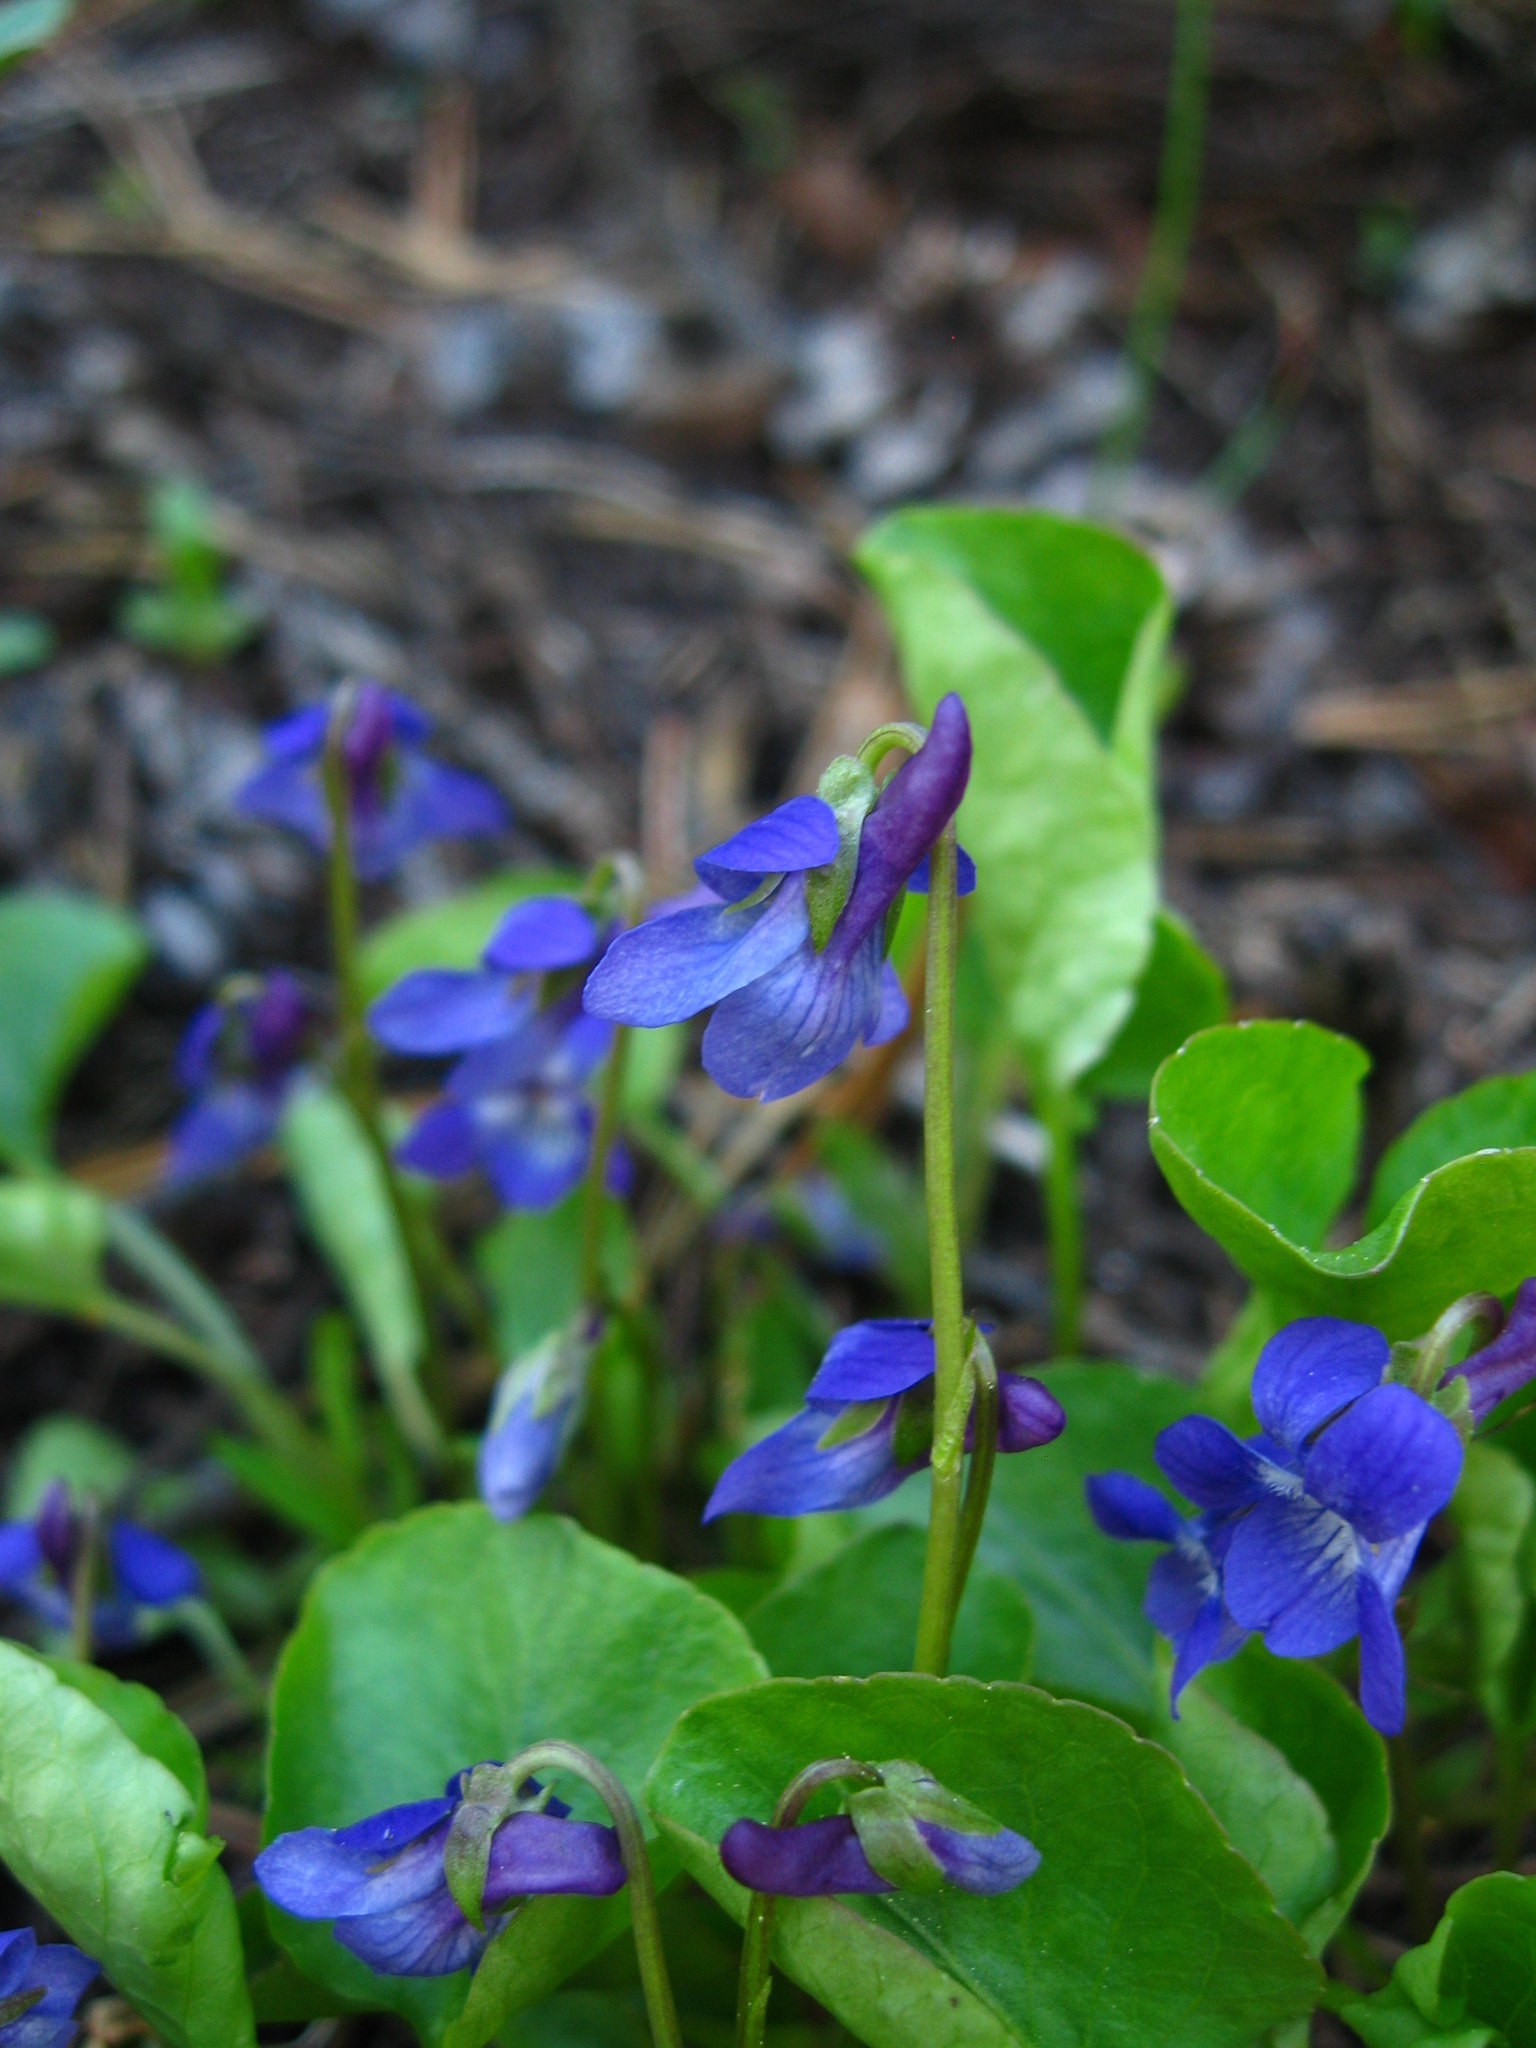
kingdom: Plantae
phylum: Tracheophyta
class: Magnoliopsida
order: Malpighiales
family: Violaceae
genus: Viola
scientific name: Viola adunca
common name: Sand violet
